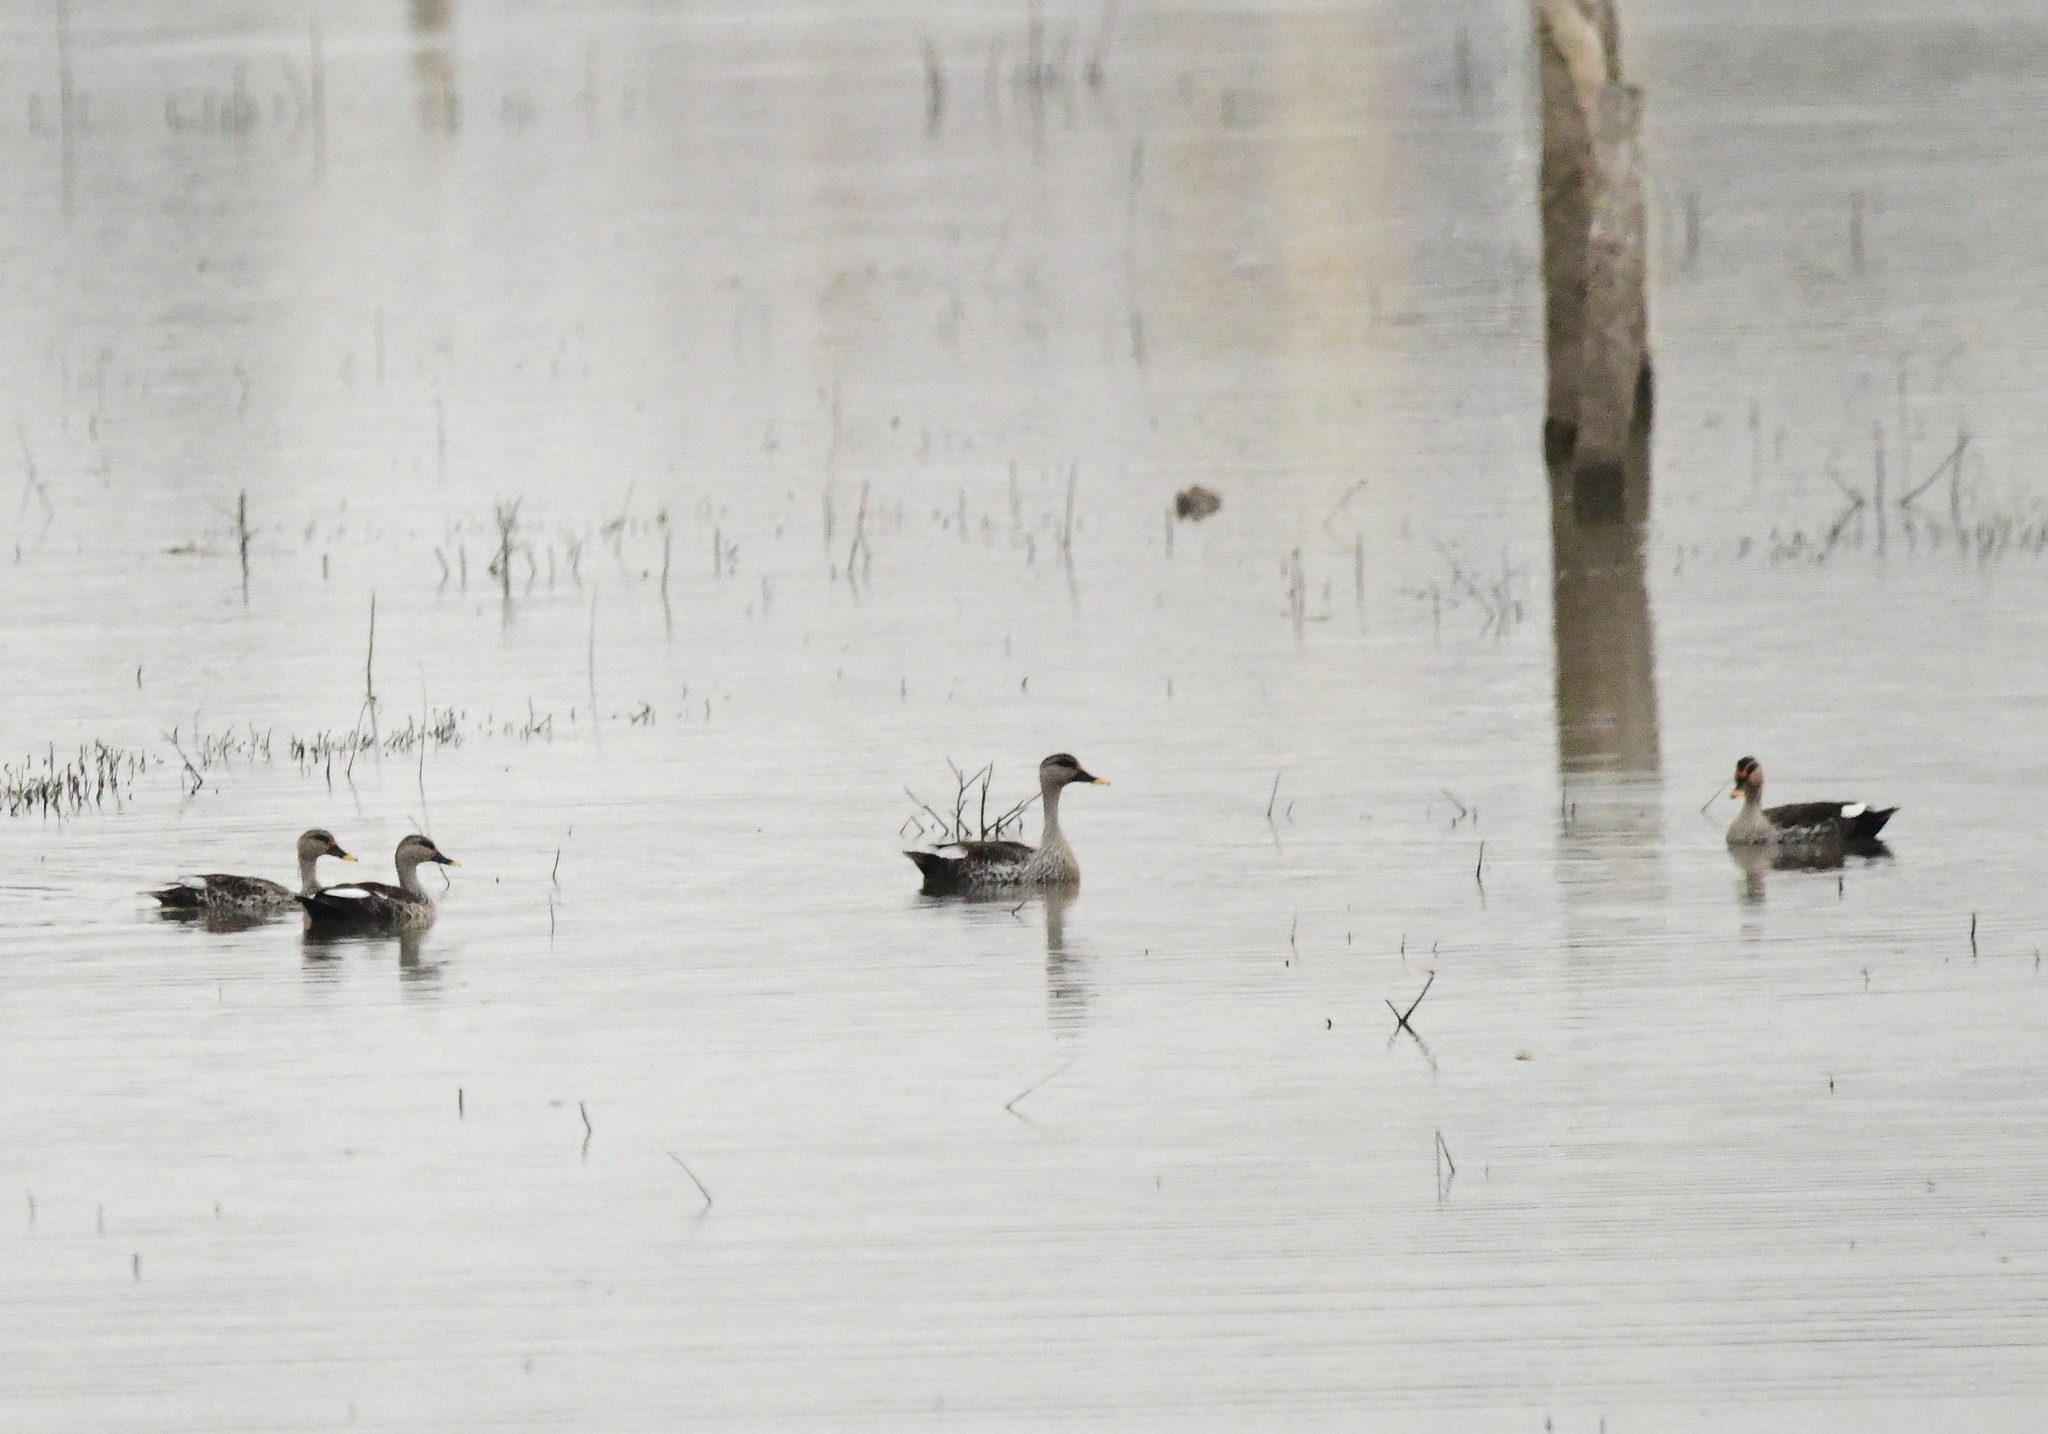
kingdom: Animalia
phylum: Chordata
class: Aves
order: Anseriformes
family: Anatidae
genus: Anas
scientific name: Anas poecilorhyncha
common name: Indian spot-billed duck
